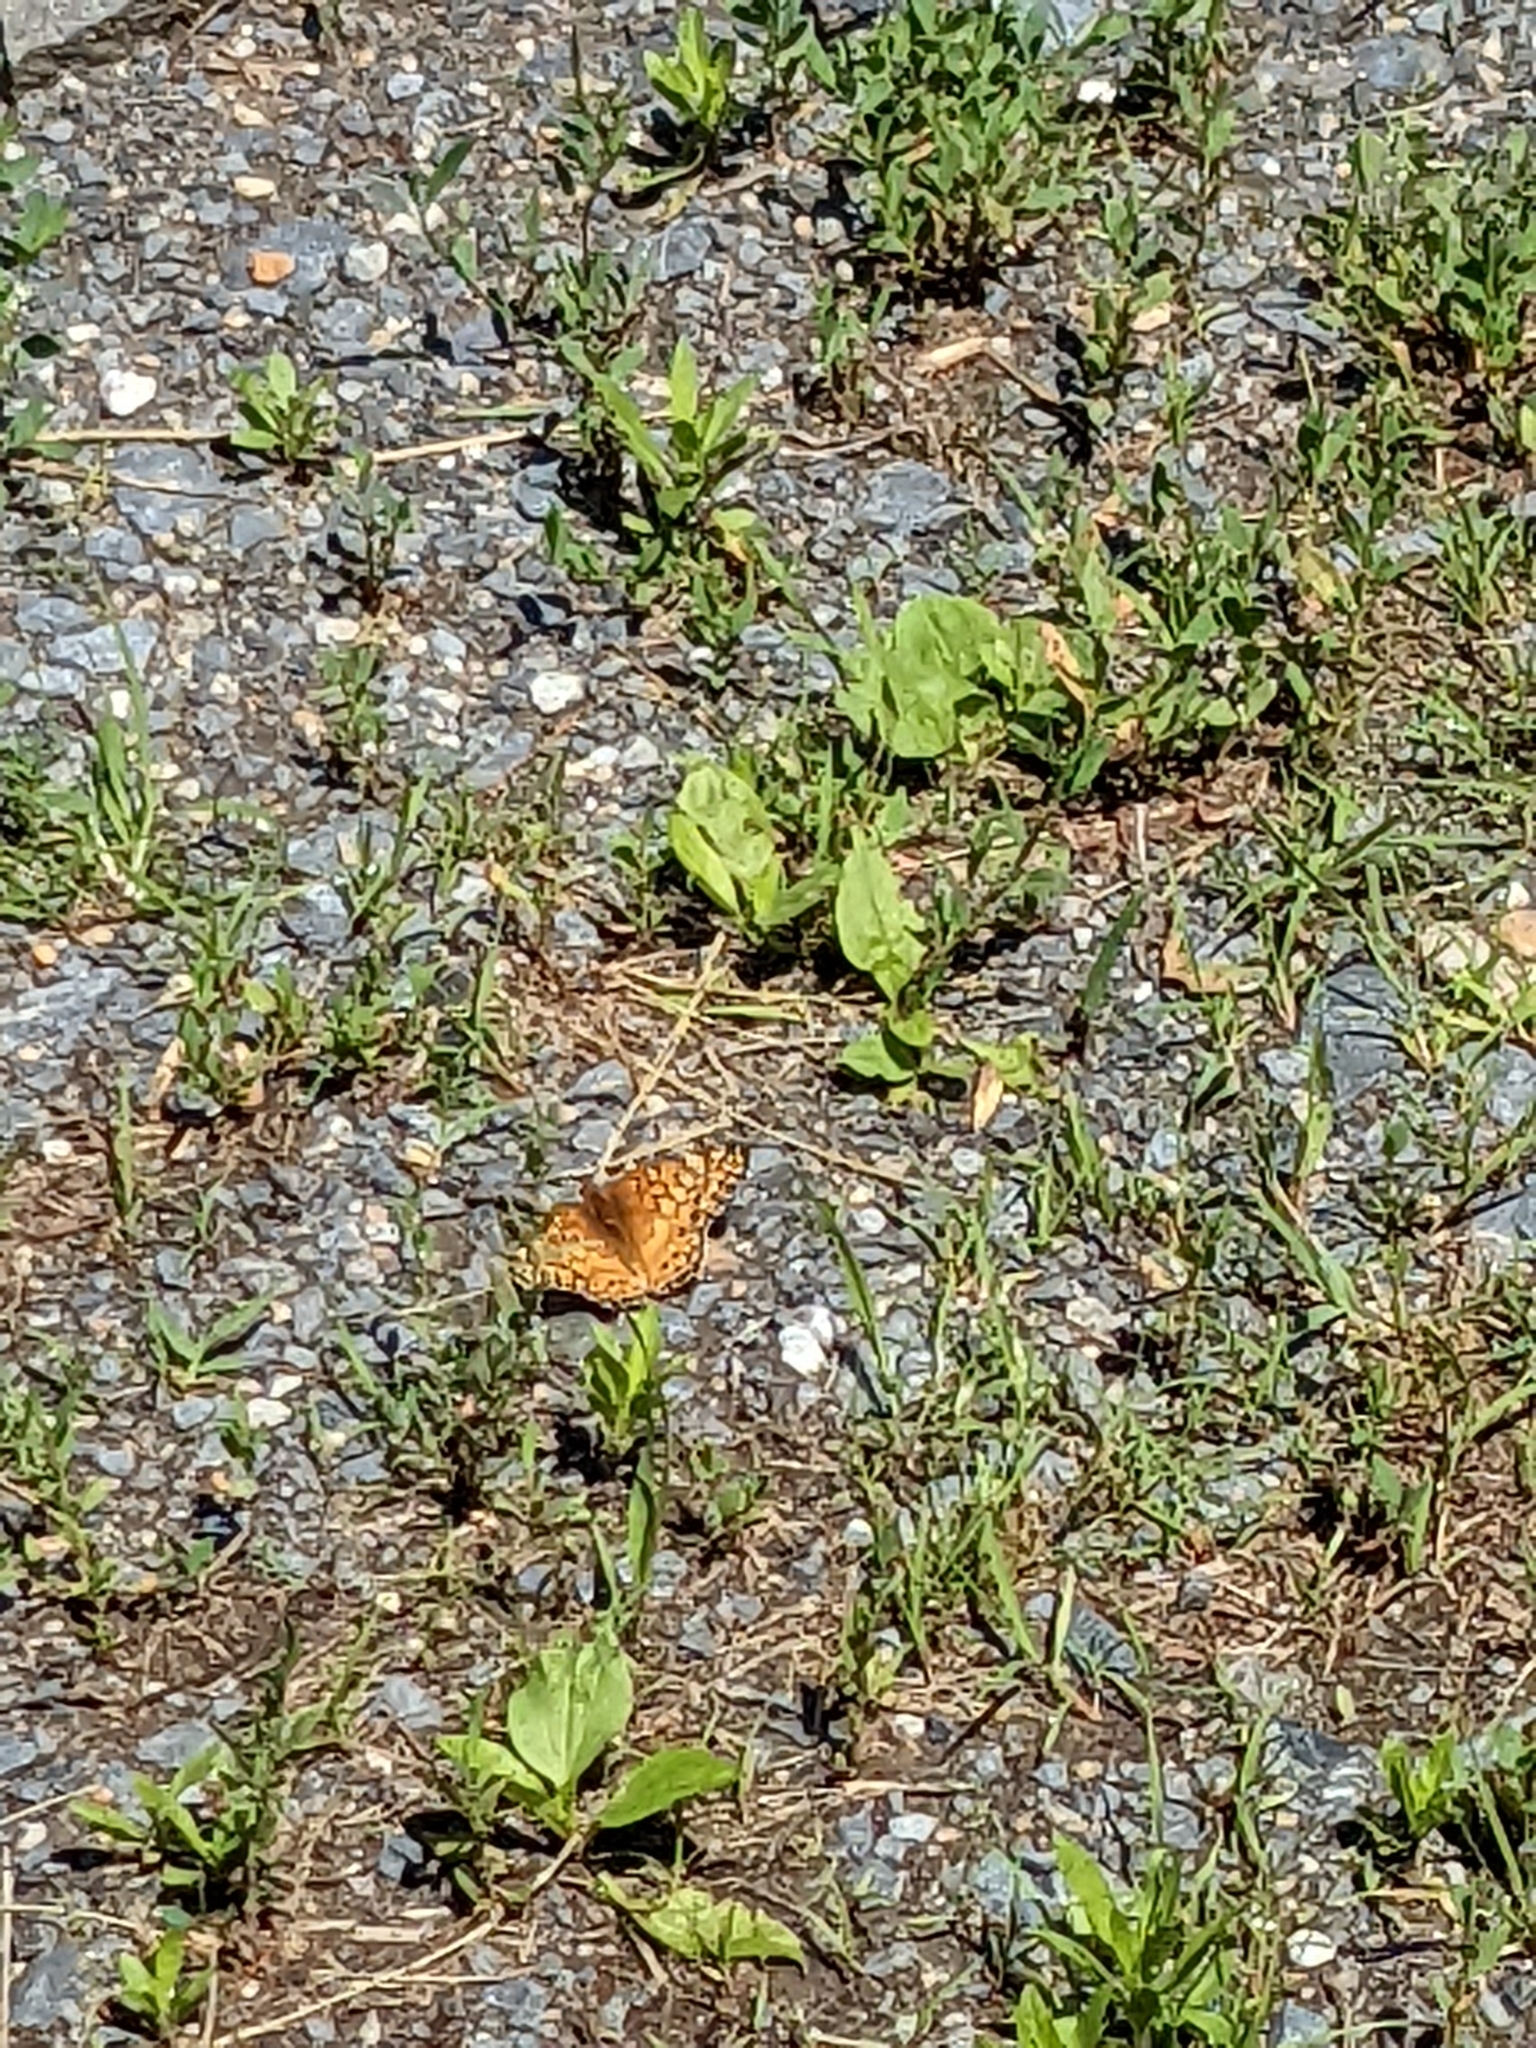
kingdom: Animalia
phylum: Arthropoda
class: Insecta
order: Lepidoptera
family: Nymphalidae
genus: Euptoieta
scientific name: Euptoieta claudia
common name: Variegated fritillary
